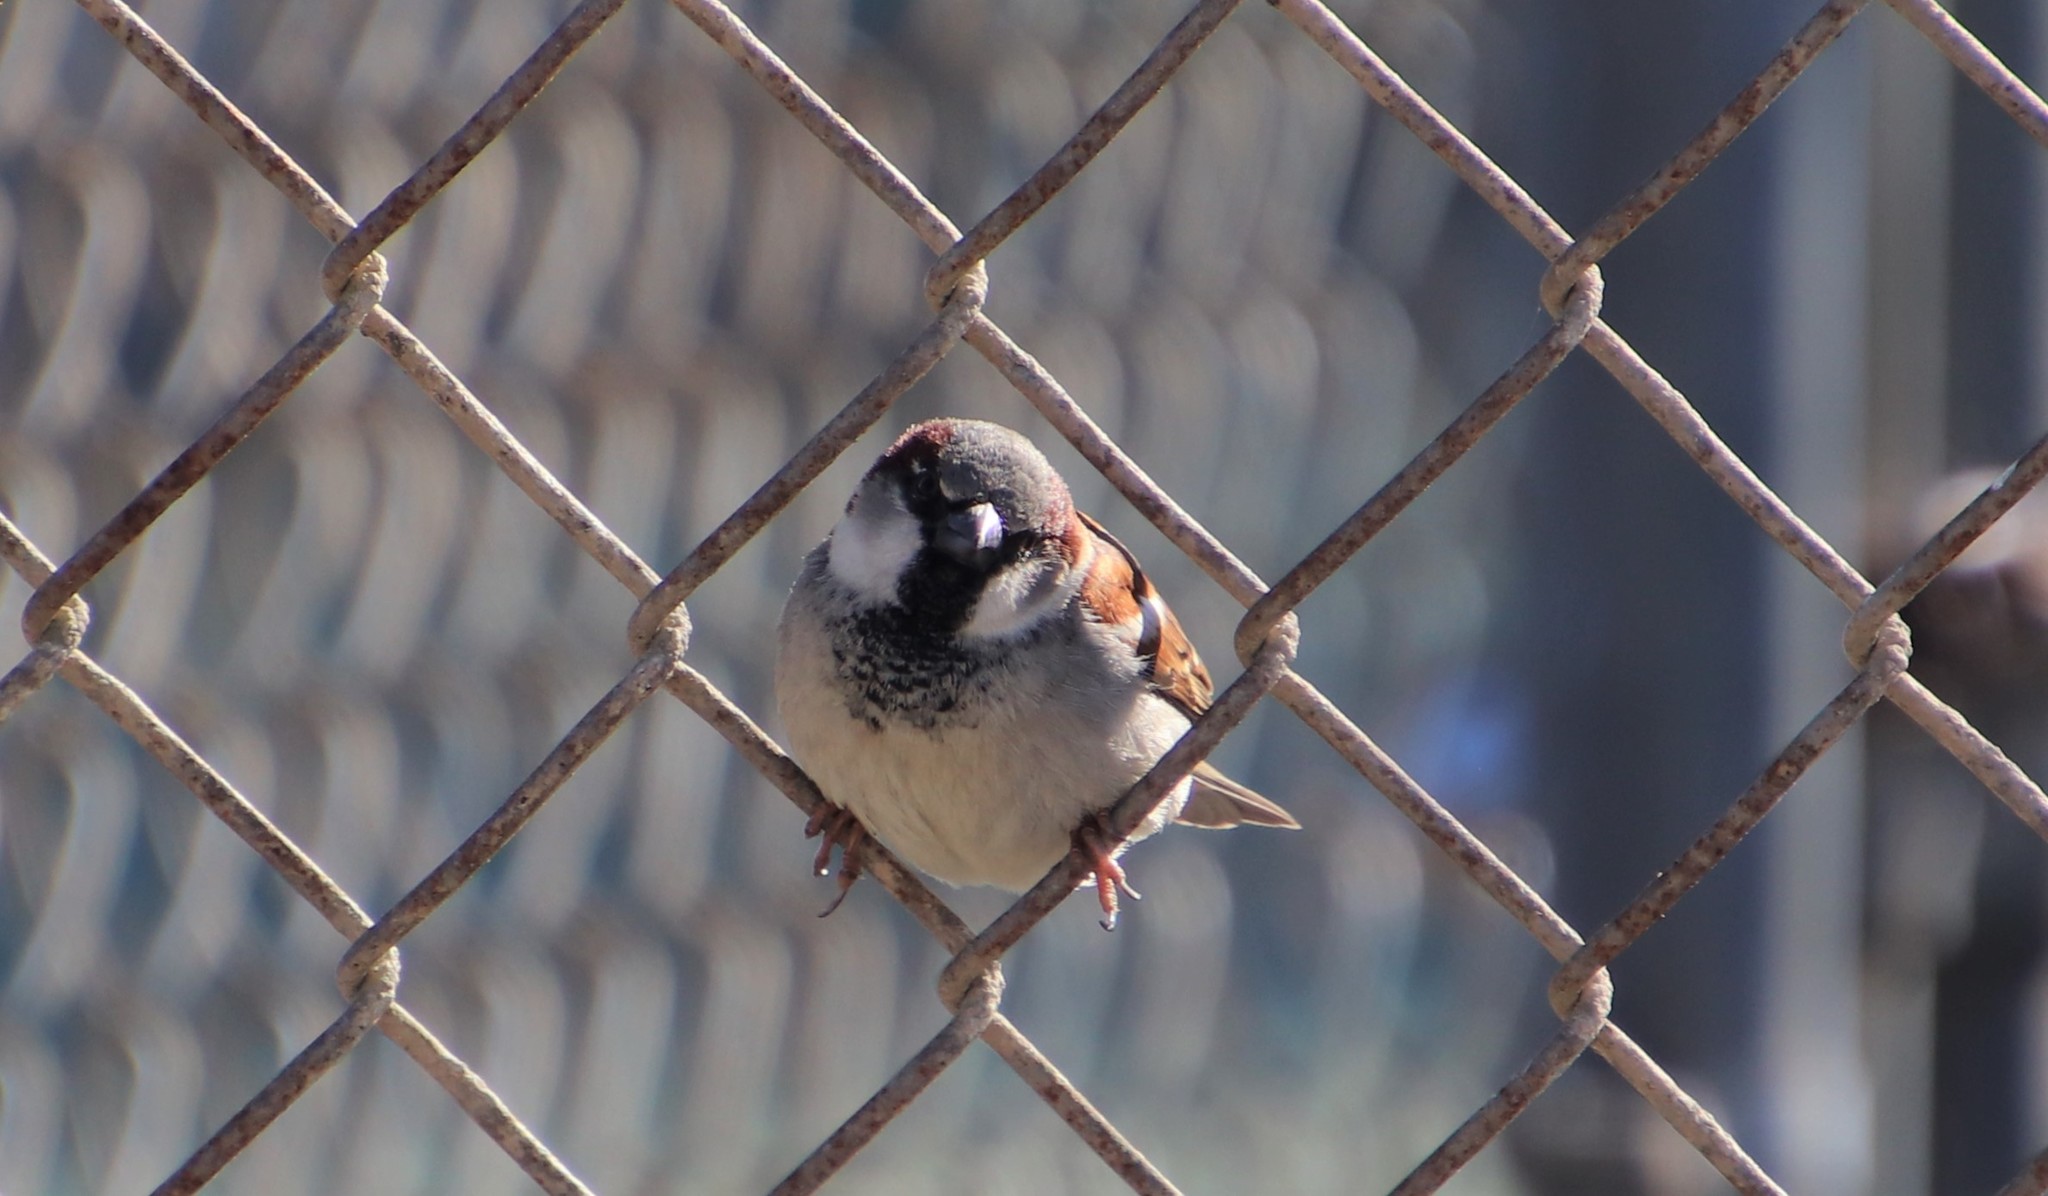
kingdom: Animalia
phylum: Chordata
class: Aves
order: Passeriformes
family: Passeridae
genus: Passer
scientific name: Passer domesticus
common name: House sparrow
